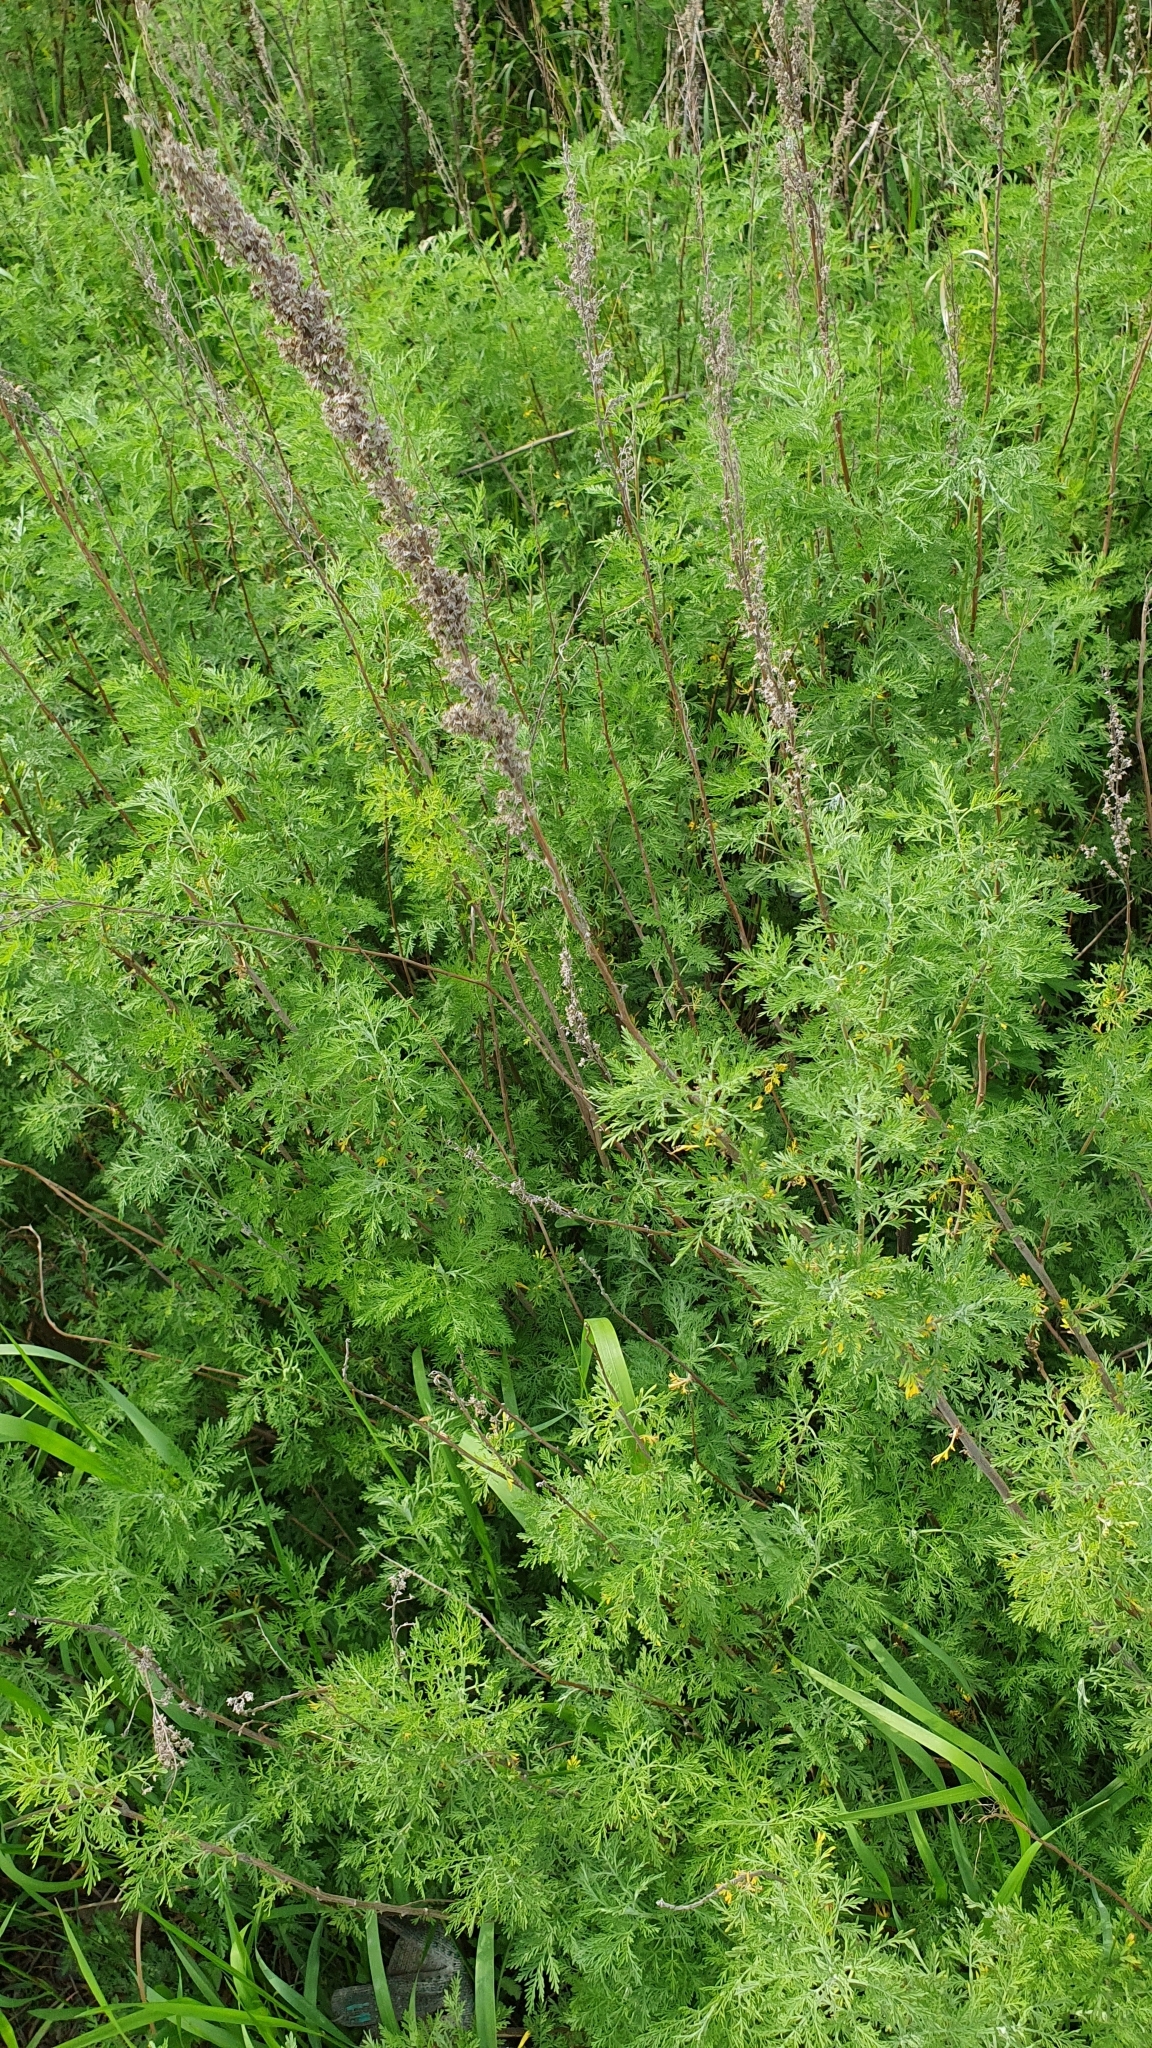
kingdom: Plantae
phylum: Tracheophyta
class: Magnoliopsida
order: Asterales
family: Asteraceae
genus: Artemisia
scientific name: Artemisia abrotanum
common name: Southernwood
